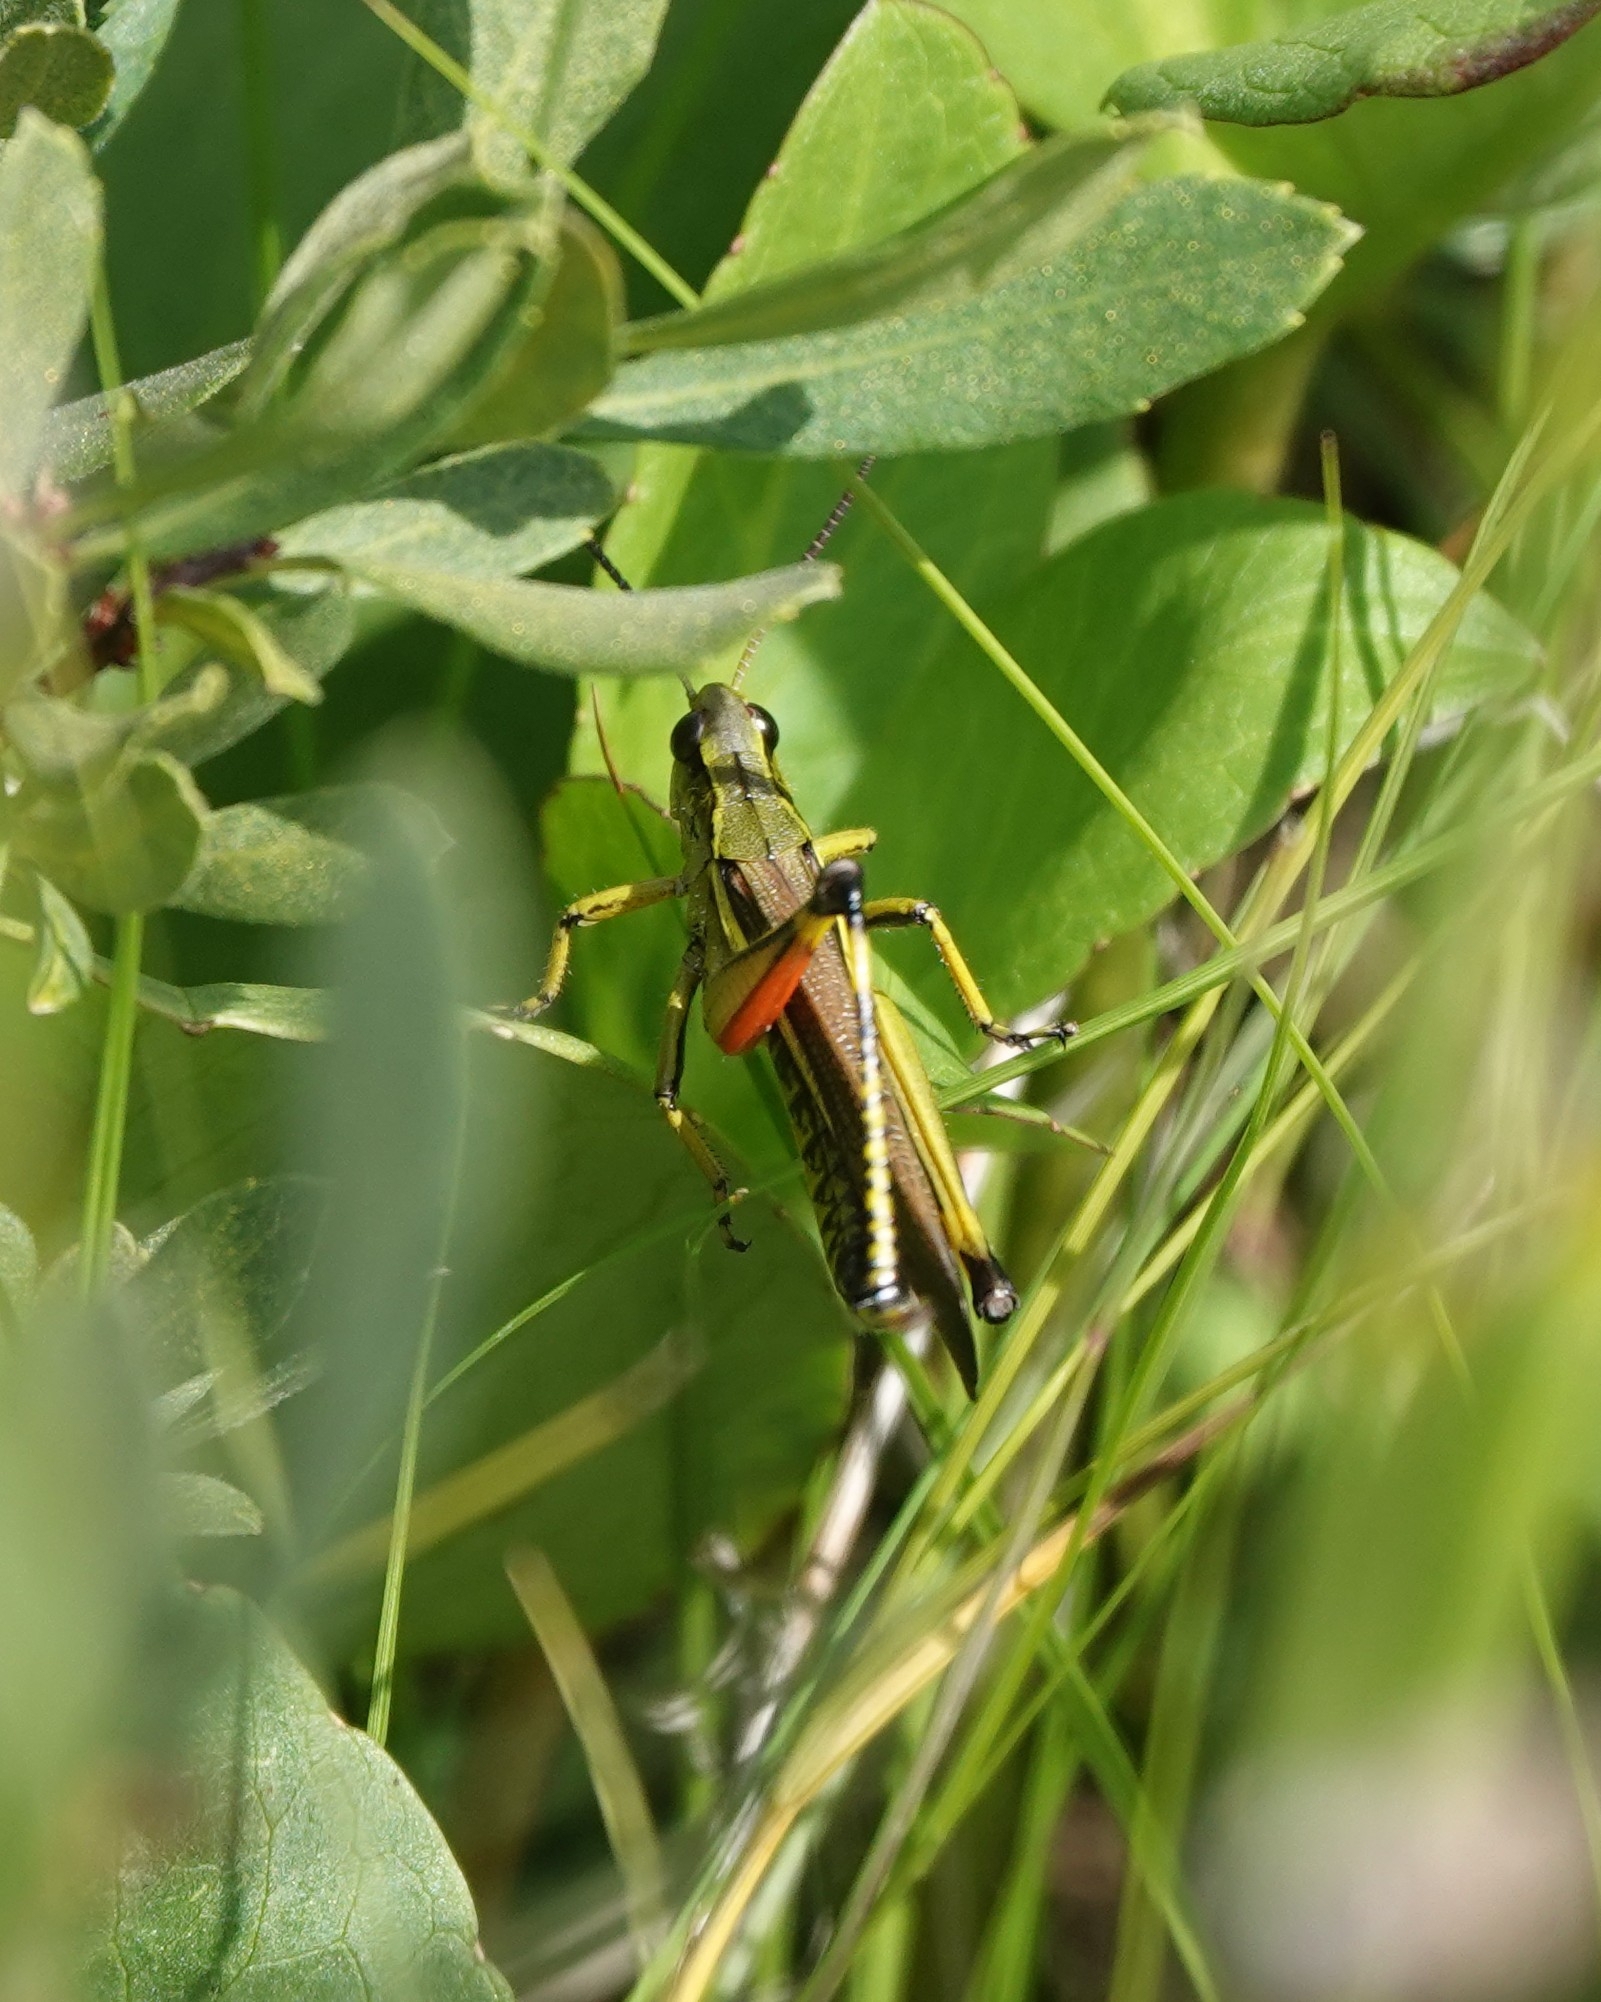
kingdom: Animalia
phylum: Arthropoda
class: Insecta
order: Orthoptera
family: Acrididae
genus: Stethophyma
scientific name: Stethophyma grossum
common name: Large marsh grasshopper
